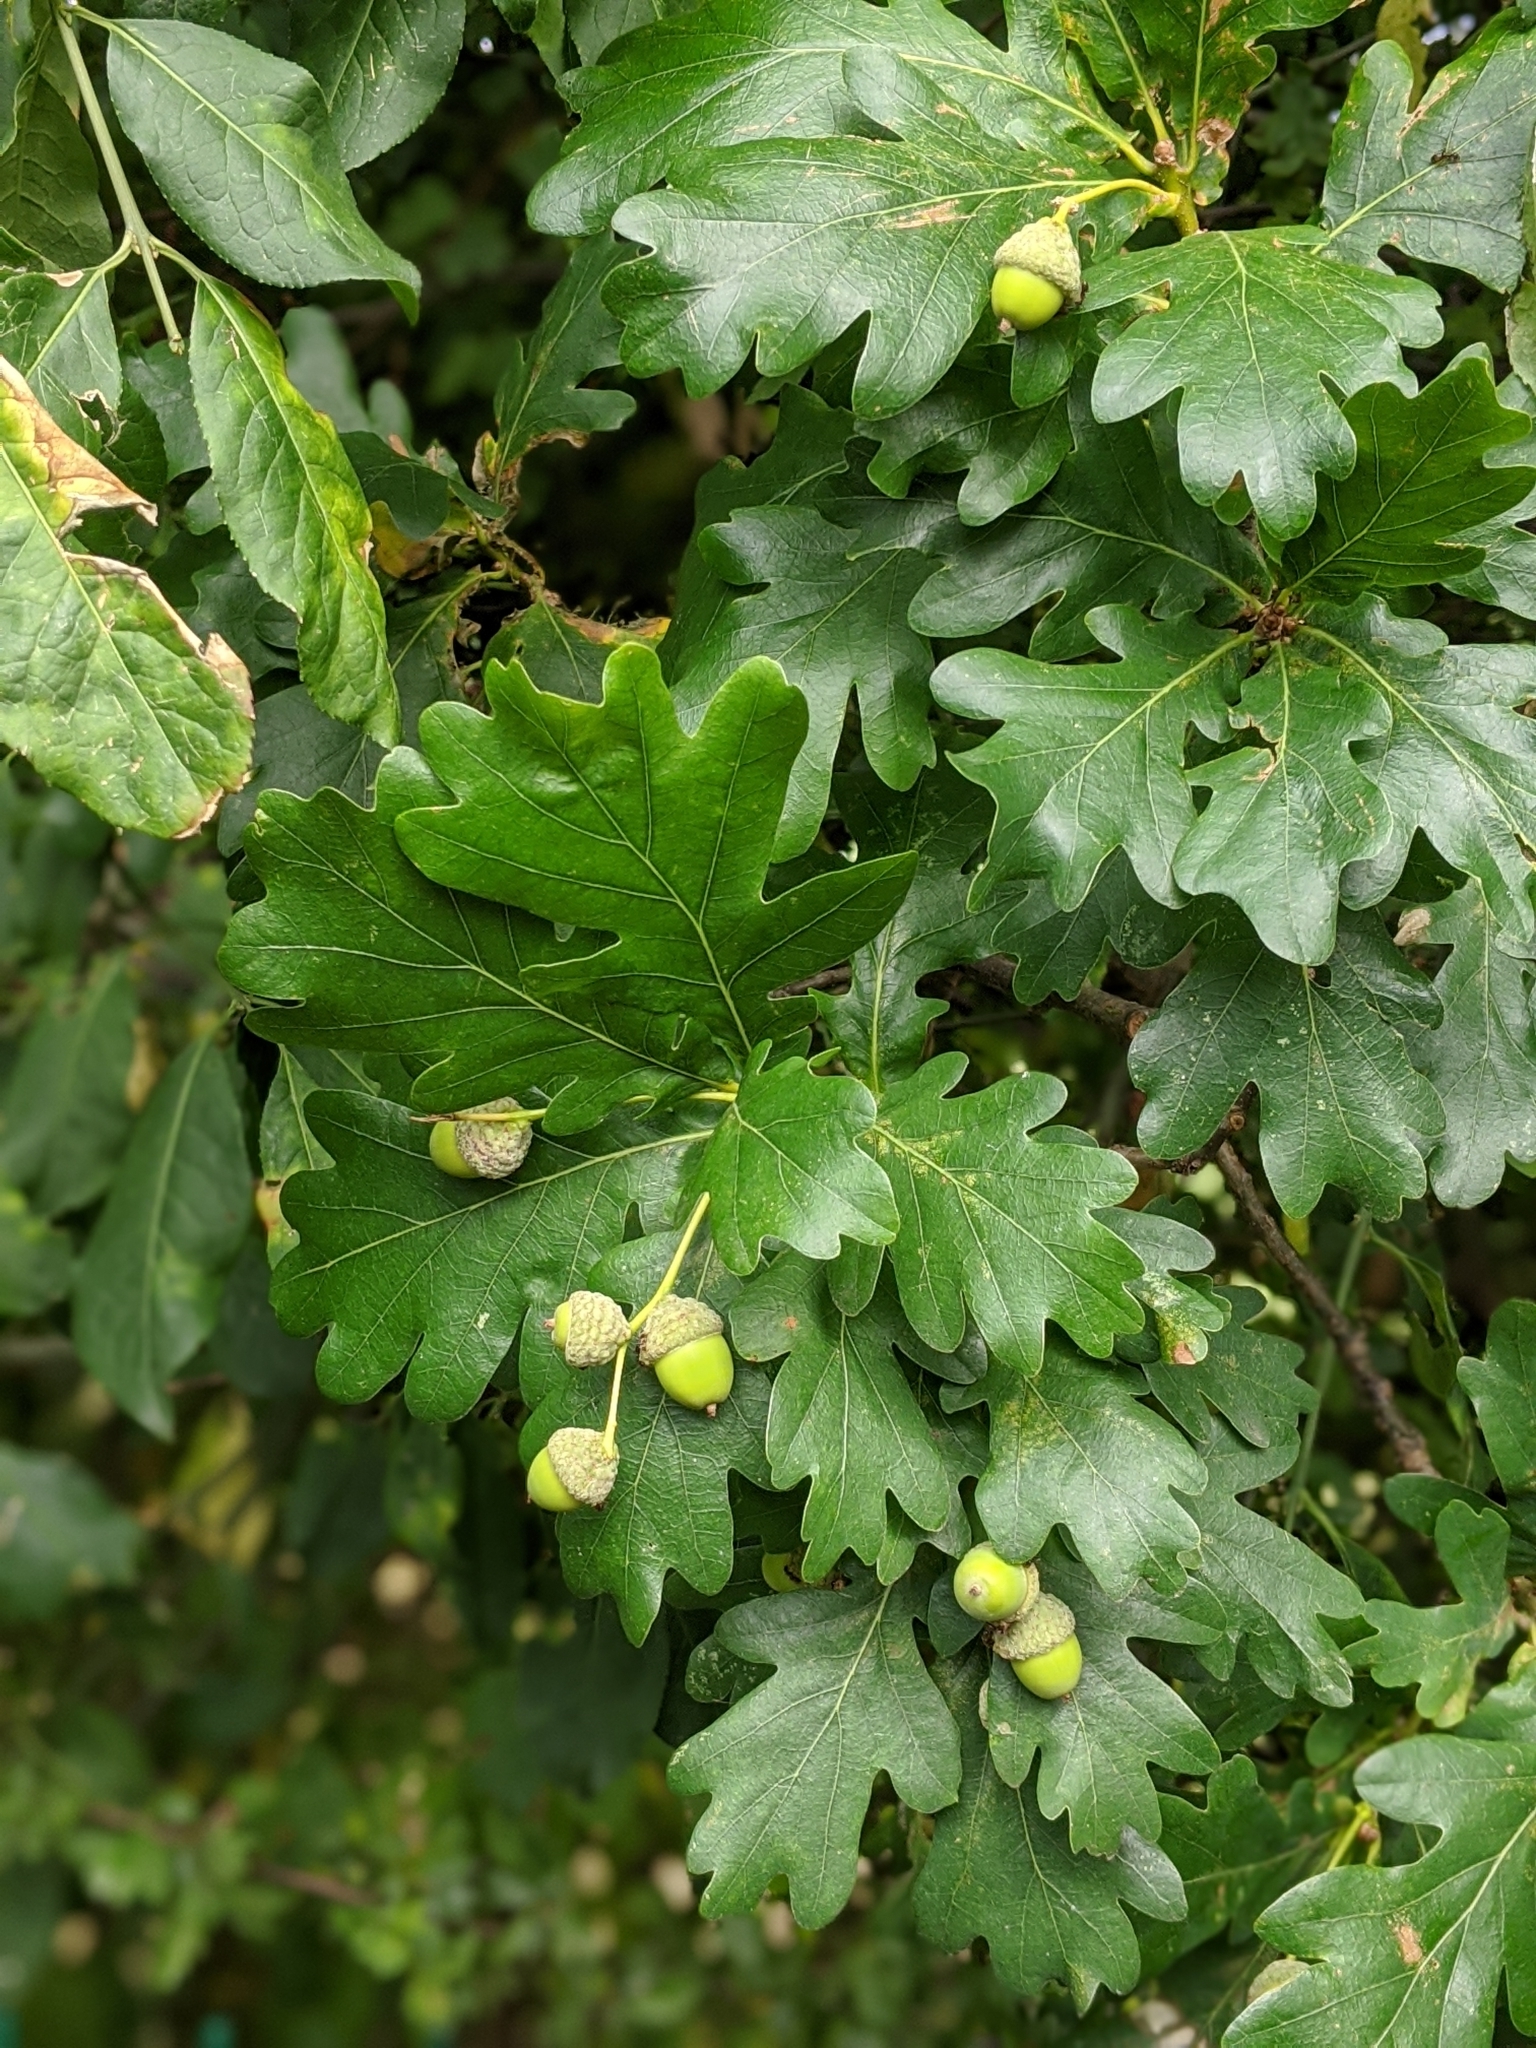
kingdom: Plantae
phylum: Tracheophyta
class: Magnoliopsida
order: Fagales
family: Fagaceae
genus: Quercus
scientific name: Quercus robur
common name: Pedunculate oak
